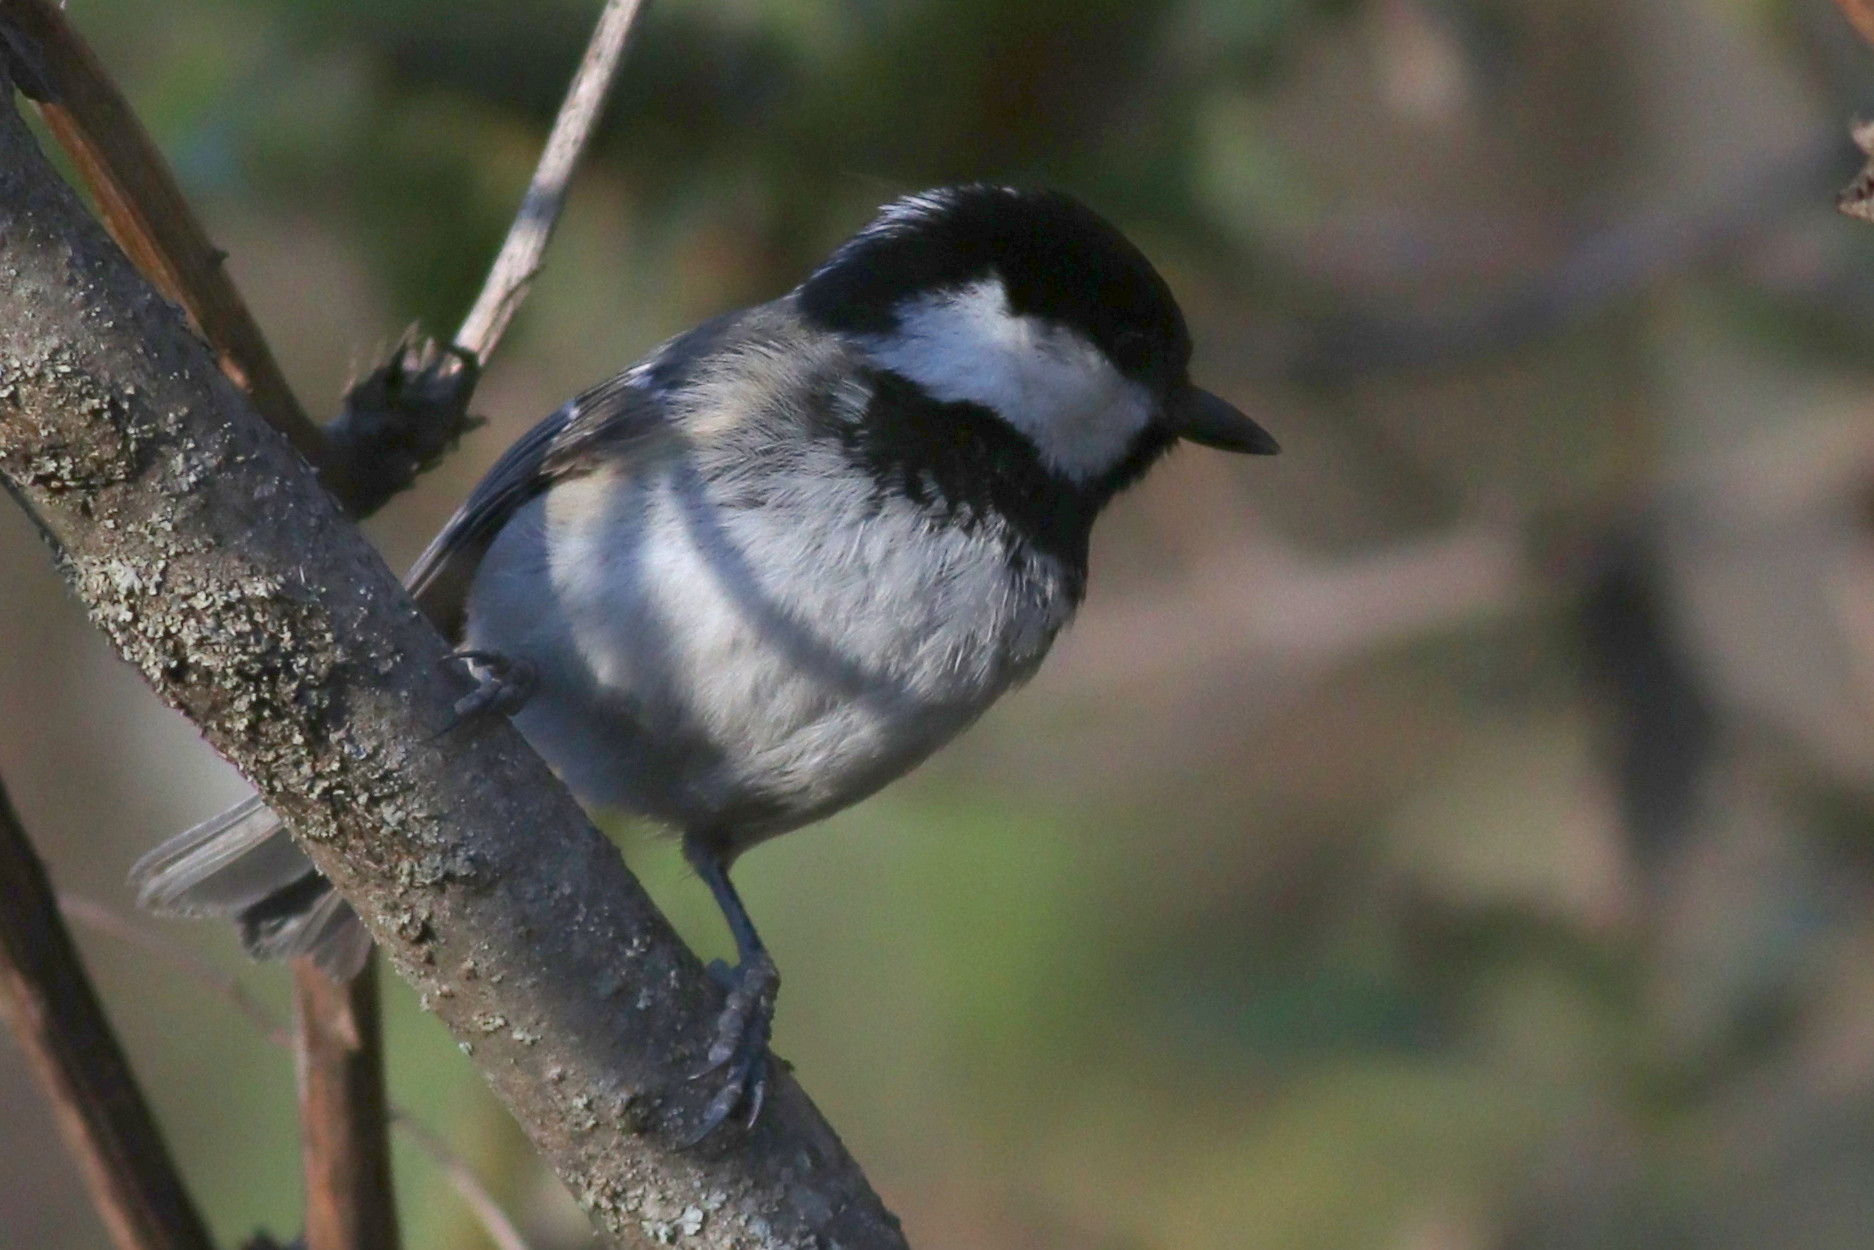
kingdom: Animalia
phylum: Chordata
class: Aves
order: Passeriformes
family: Paridae
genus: Periparus
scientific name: Periparus ater
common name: Coal tit
